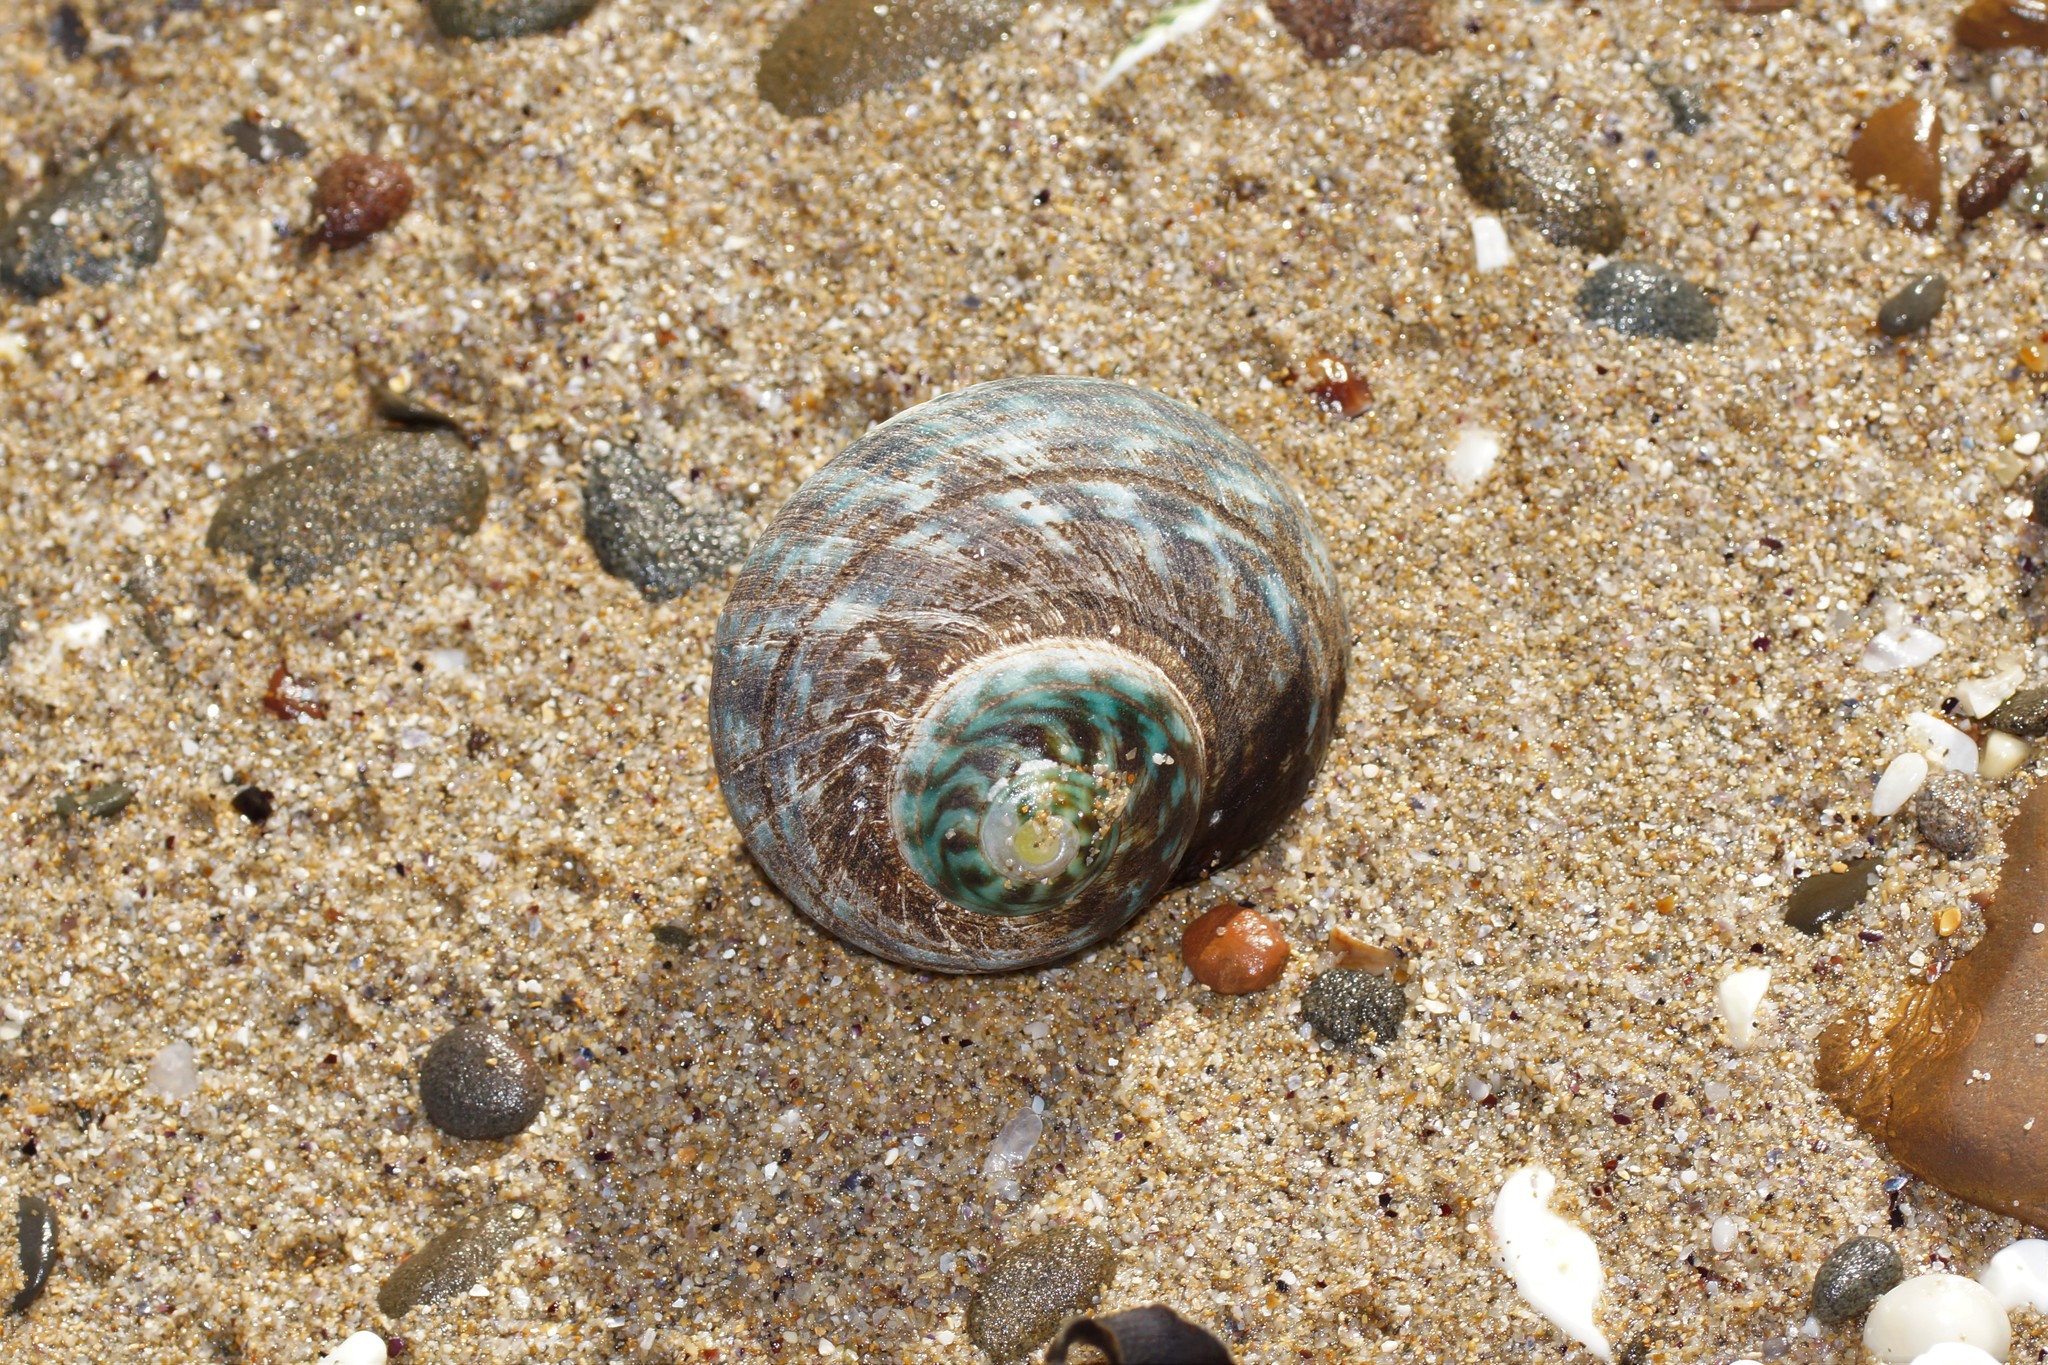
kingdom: Animalia
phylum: Mollusca
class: Gastropoda
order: Trochida
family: Turbinidae
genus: Lunella
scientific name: Lunella undulata
